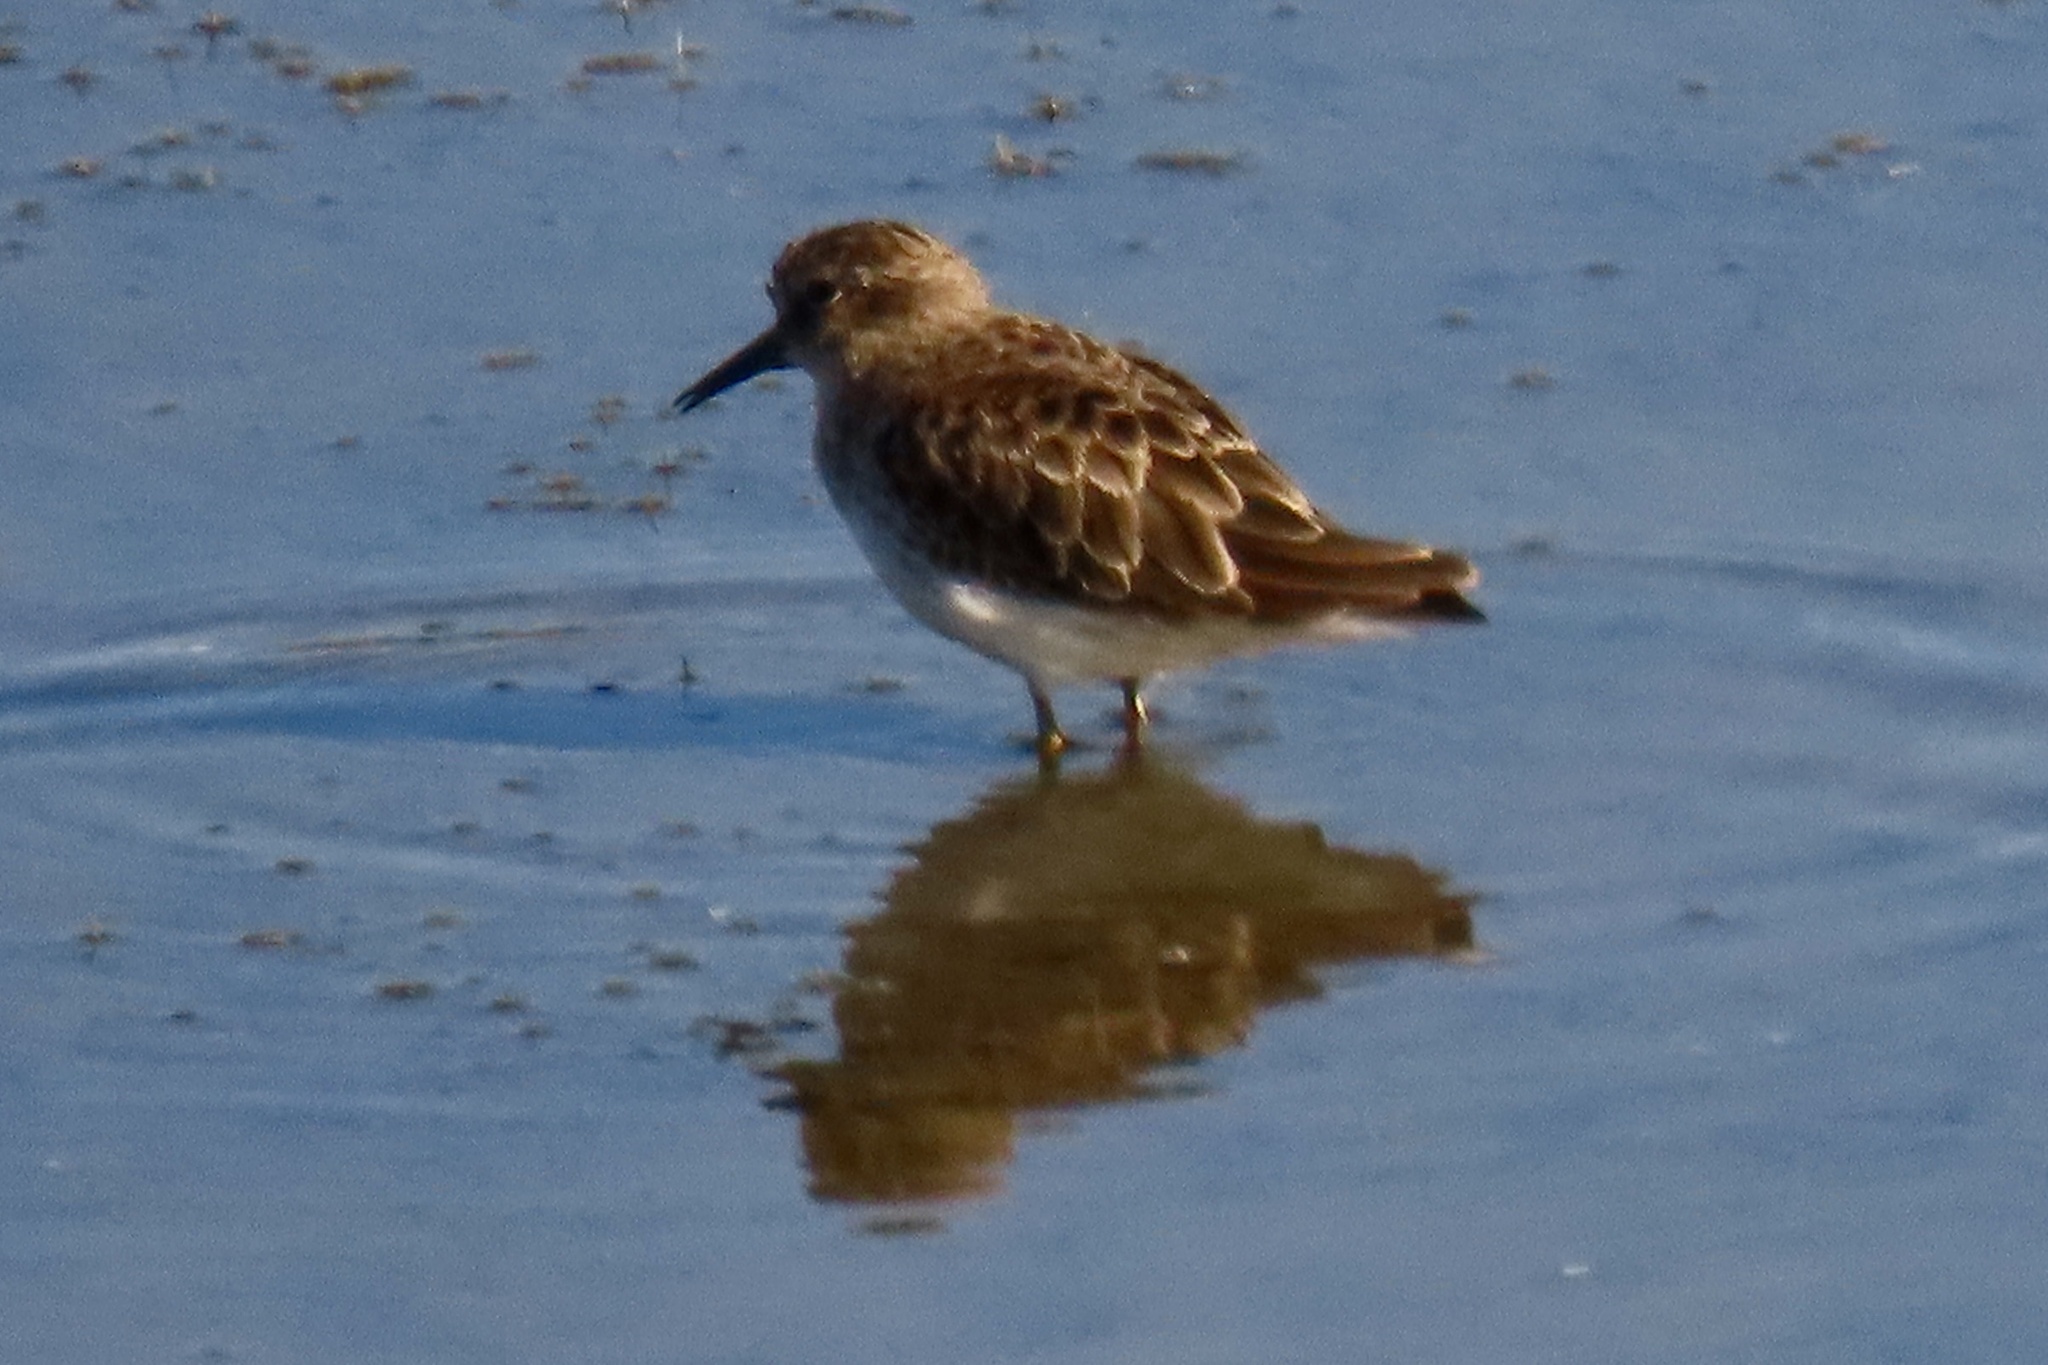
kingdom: Animalia
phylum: Chordata
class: Aves
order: Charadriiformes
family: Scolopacidae
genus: Calidris
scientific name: Calidris minutilla
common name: Least sandpiper
